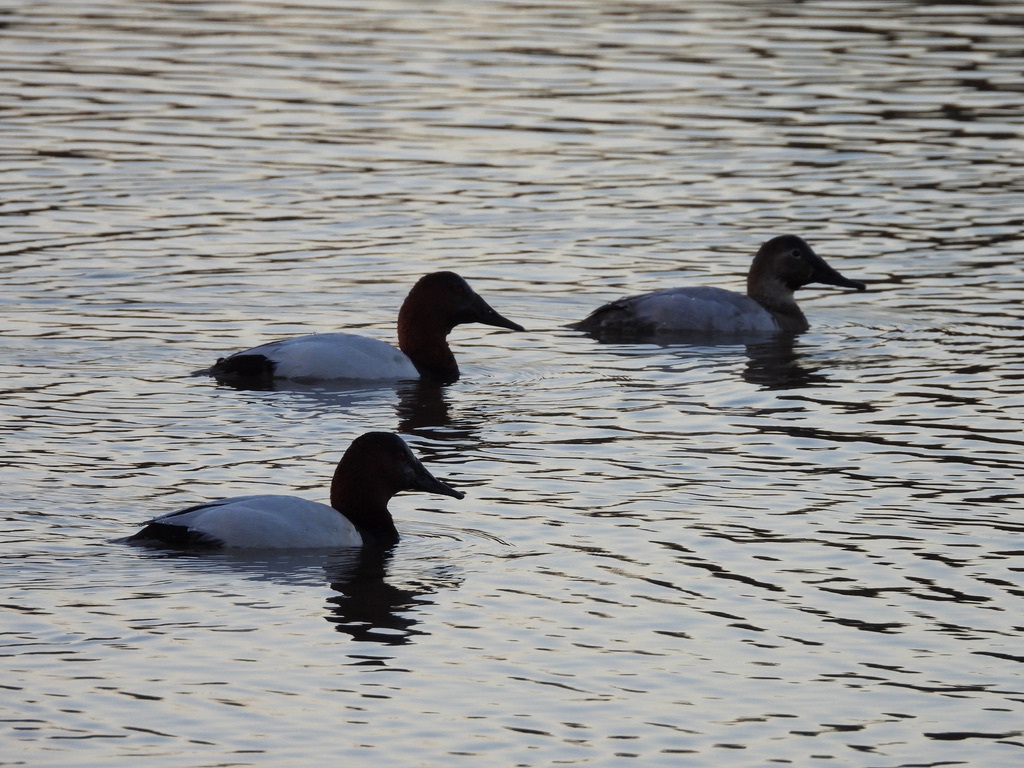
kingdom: Animalia
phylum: Chordata
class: Aves
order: Anseriformes
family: Anatidae
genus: Aythya
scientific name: Aythya valisineria
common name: Canvasback
